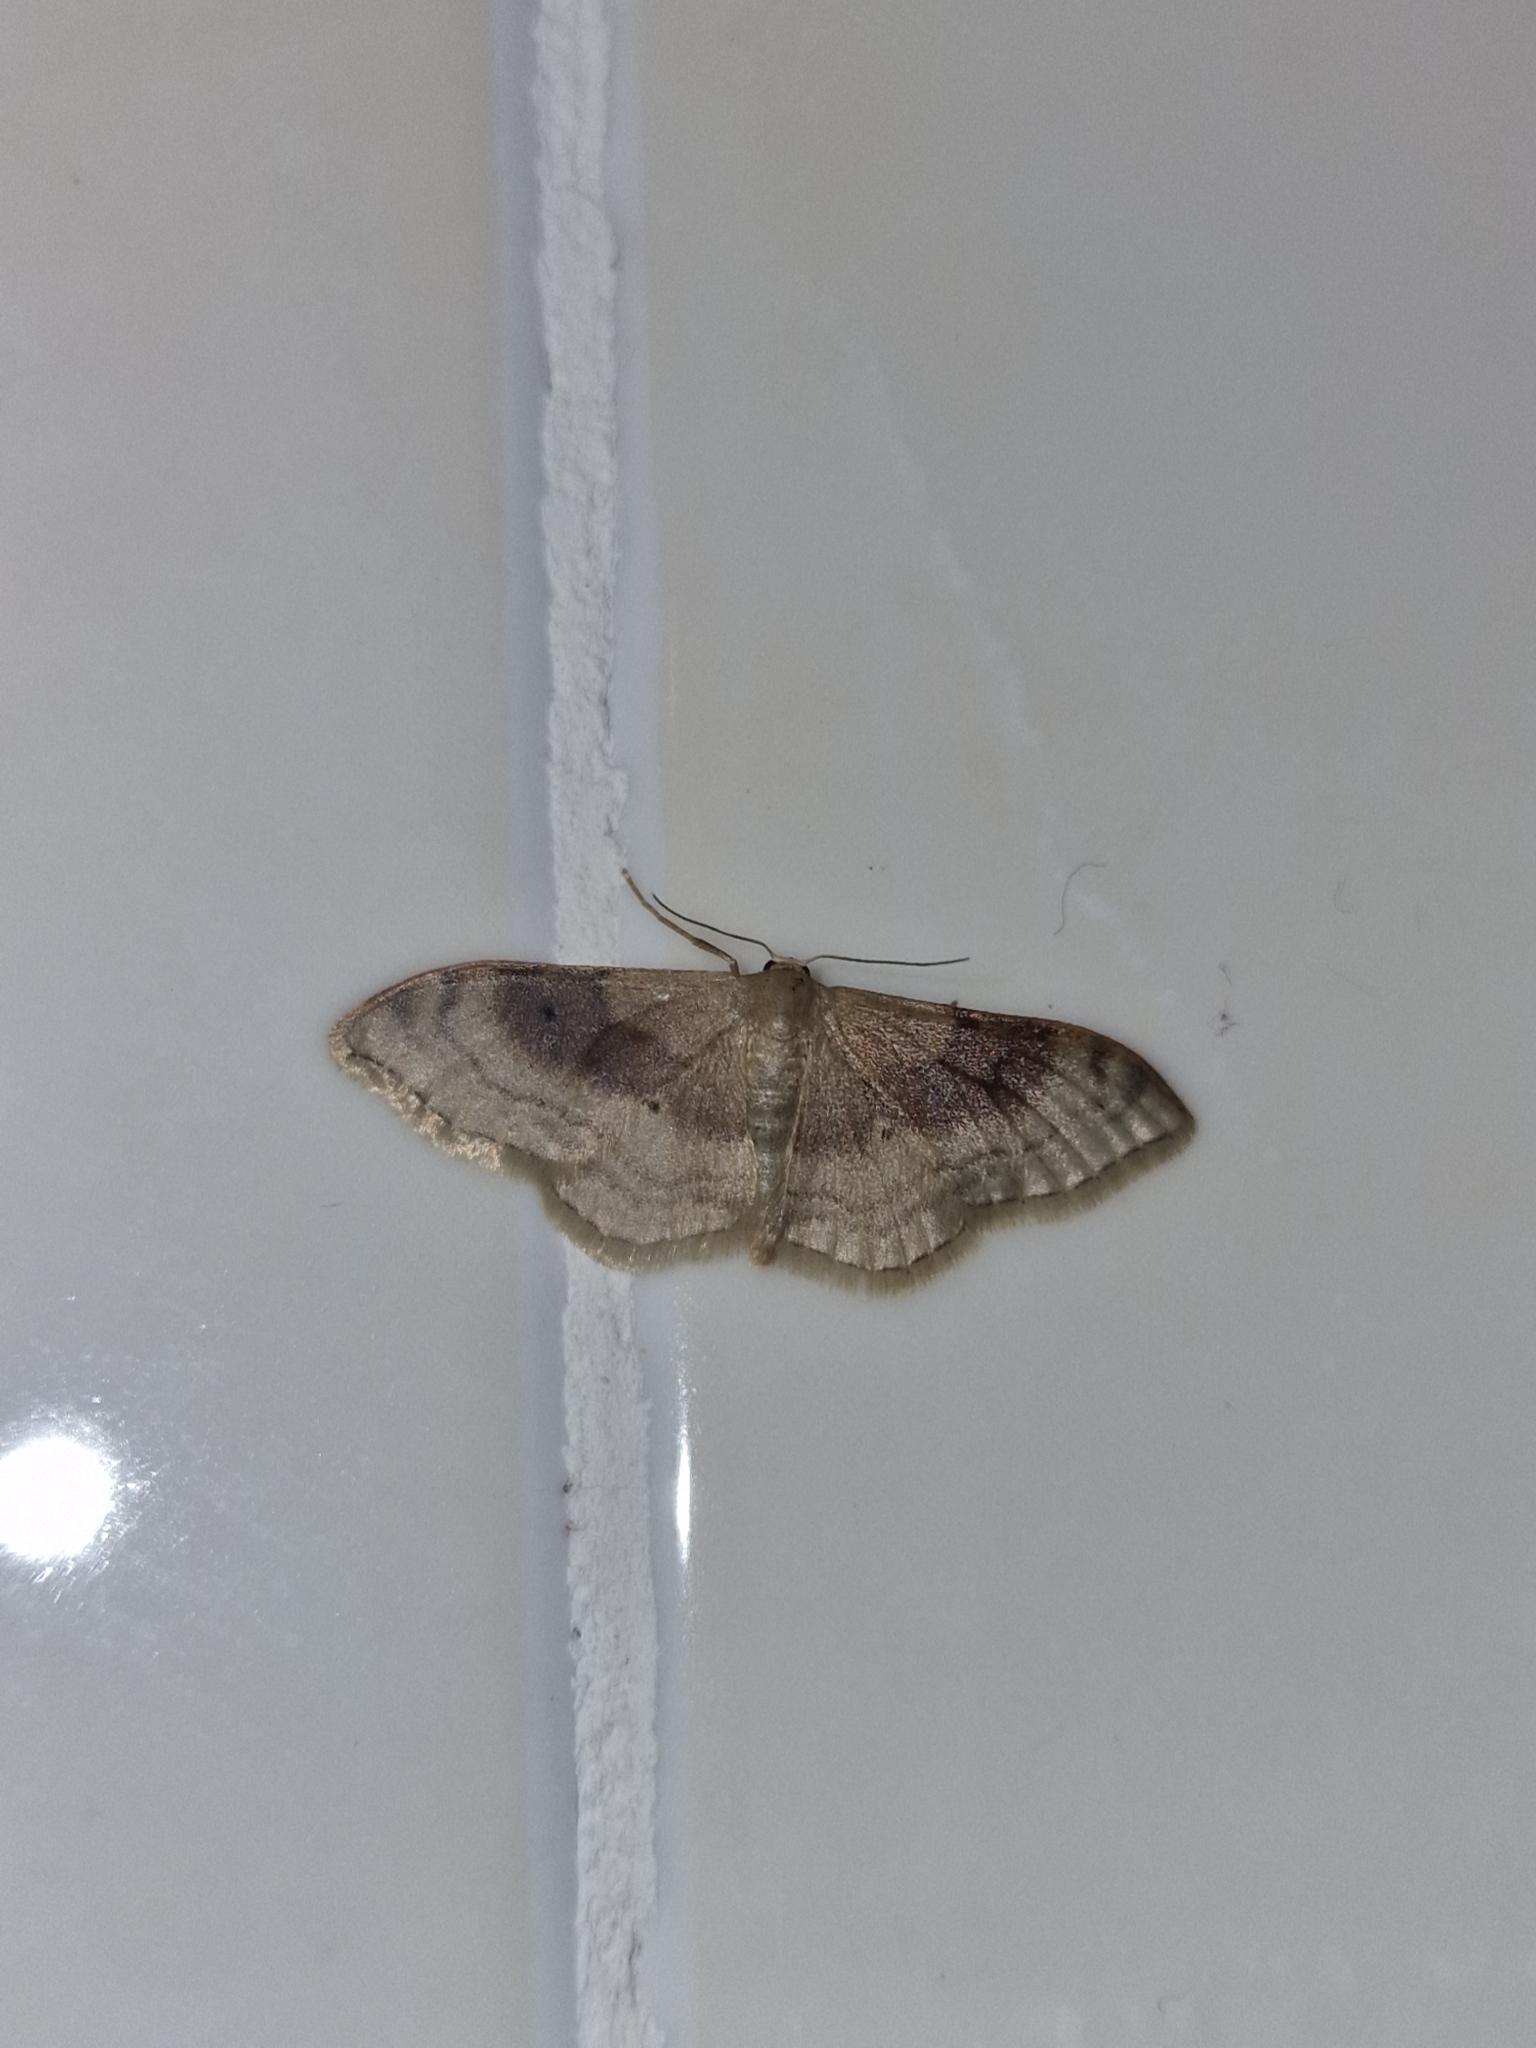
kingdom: Animalia
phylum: Arthropoda
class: Insecta
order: Lepidoptera
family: Geometridae
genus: Idaea
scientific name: Idaea degeneraria
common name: Portland ribbon wave
